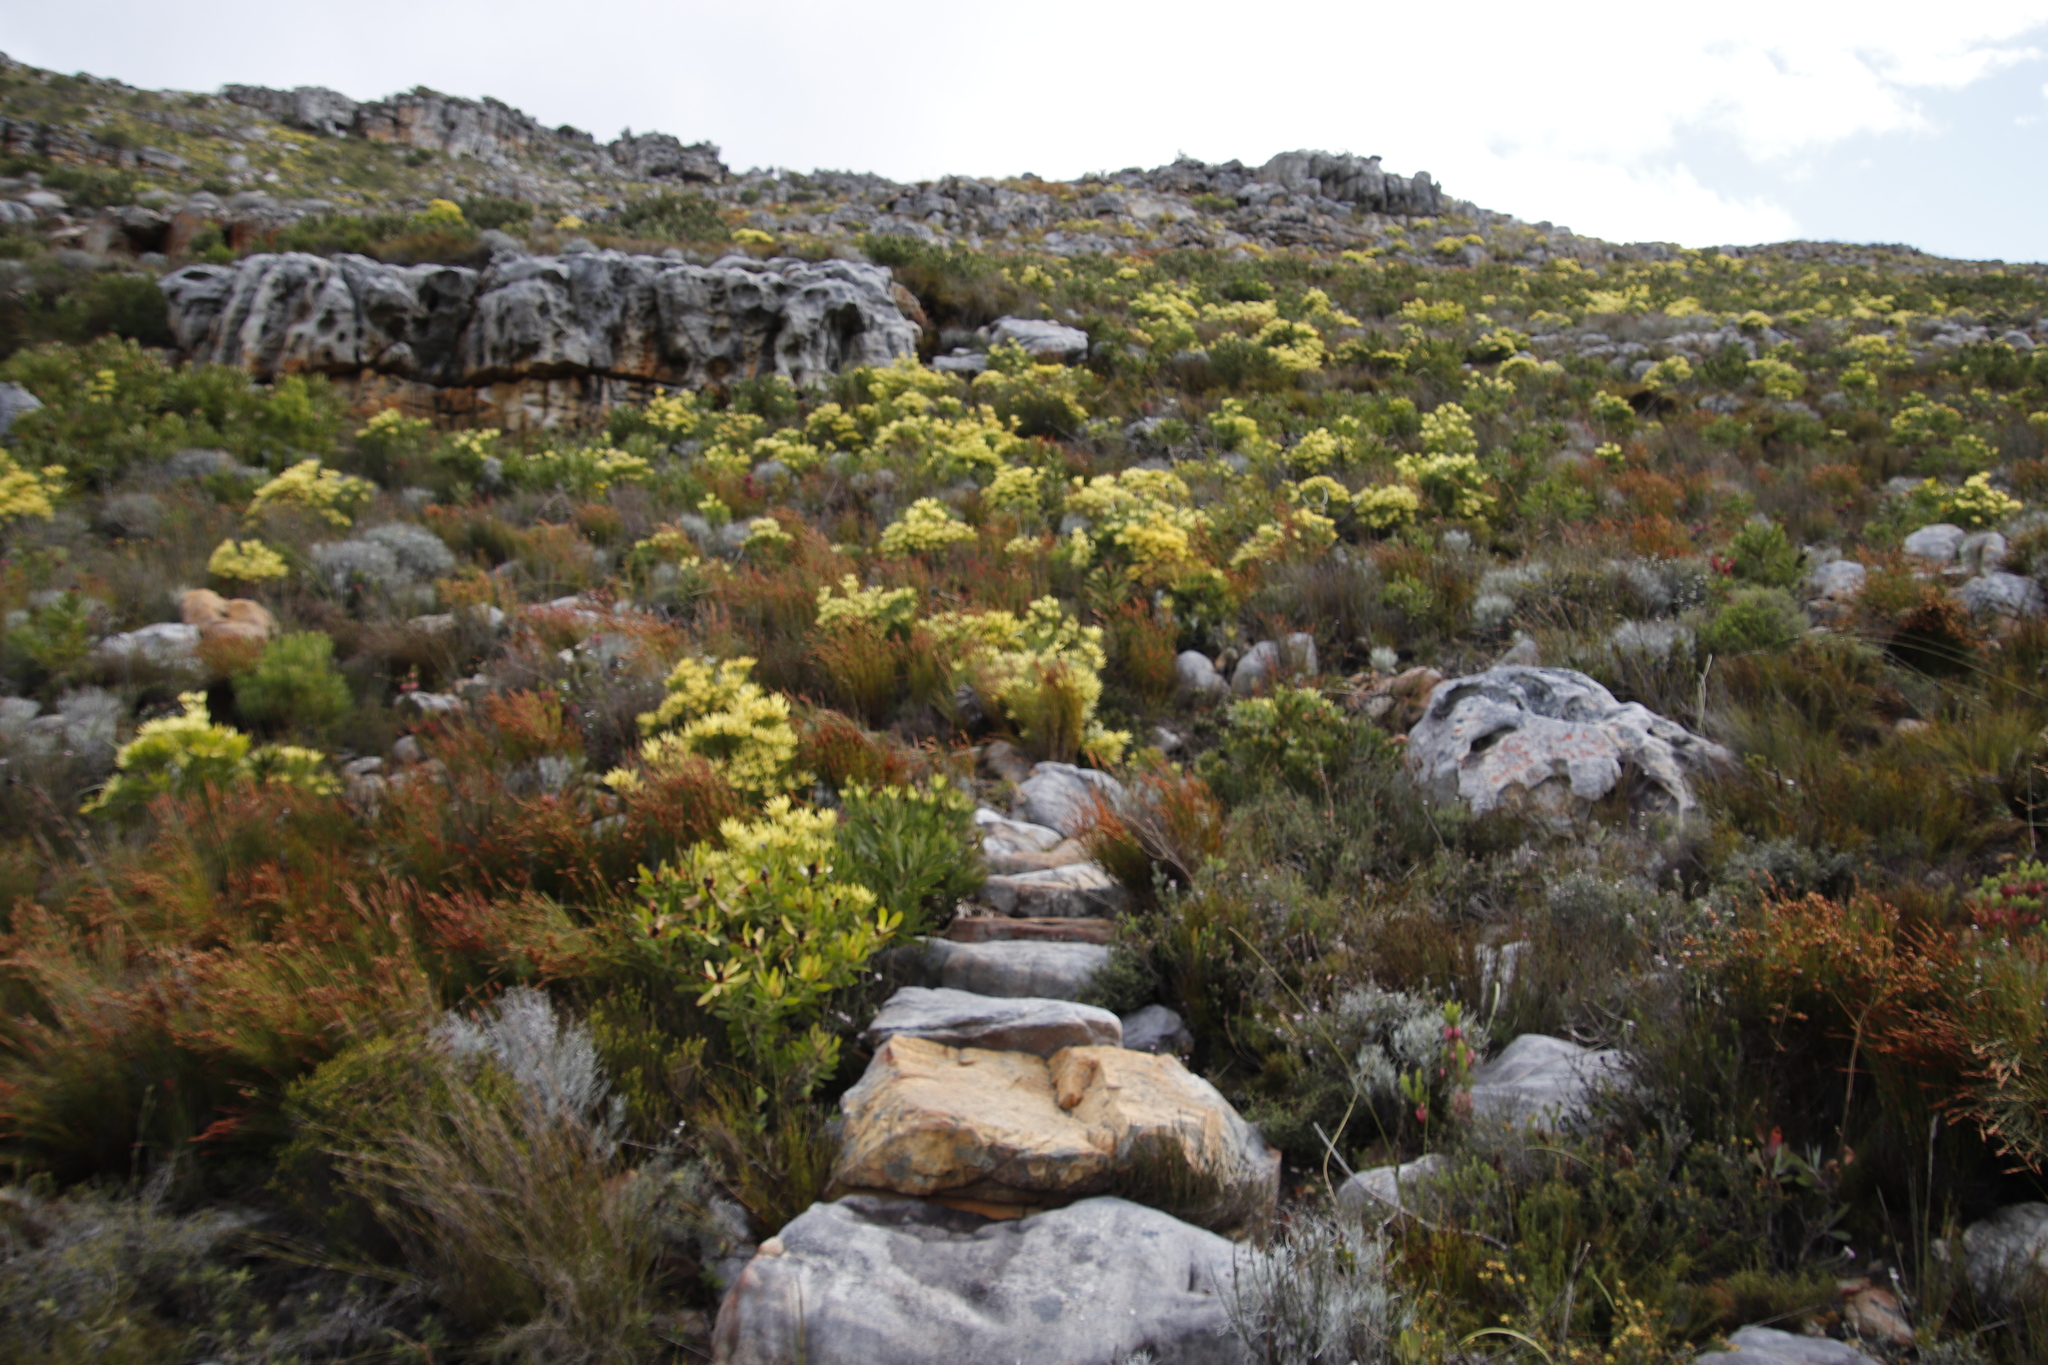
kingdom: Plantae
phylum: Tracheophyta
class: Magnoliopsida
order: Proteales
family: Proteaceae
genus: Leucadendron
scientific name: Leucadendron laureolum
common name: Golden sunshinebush
